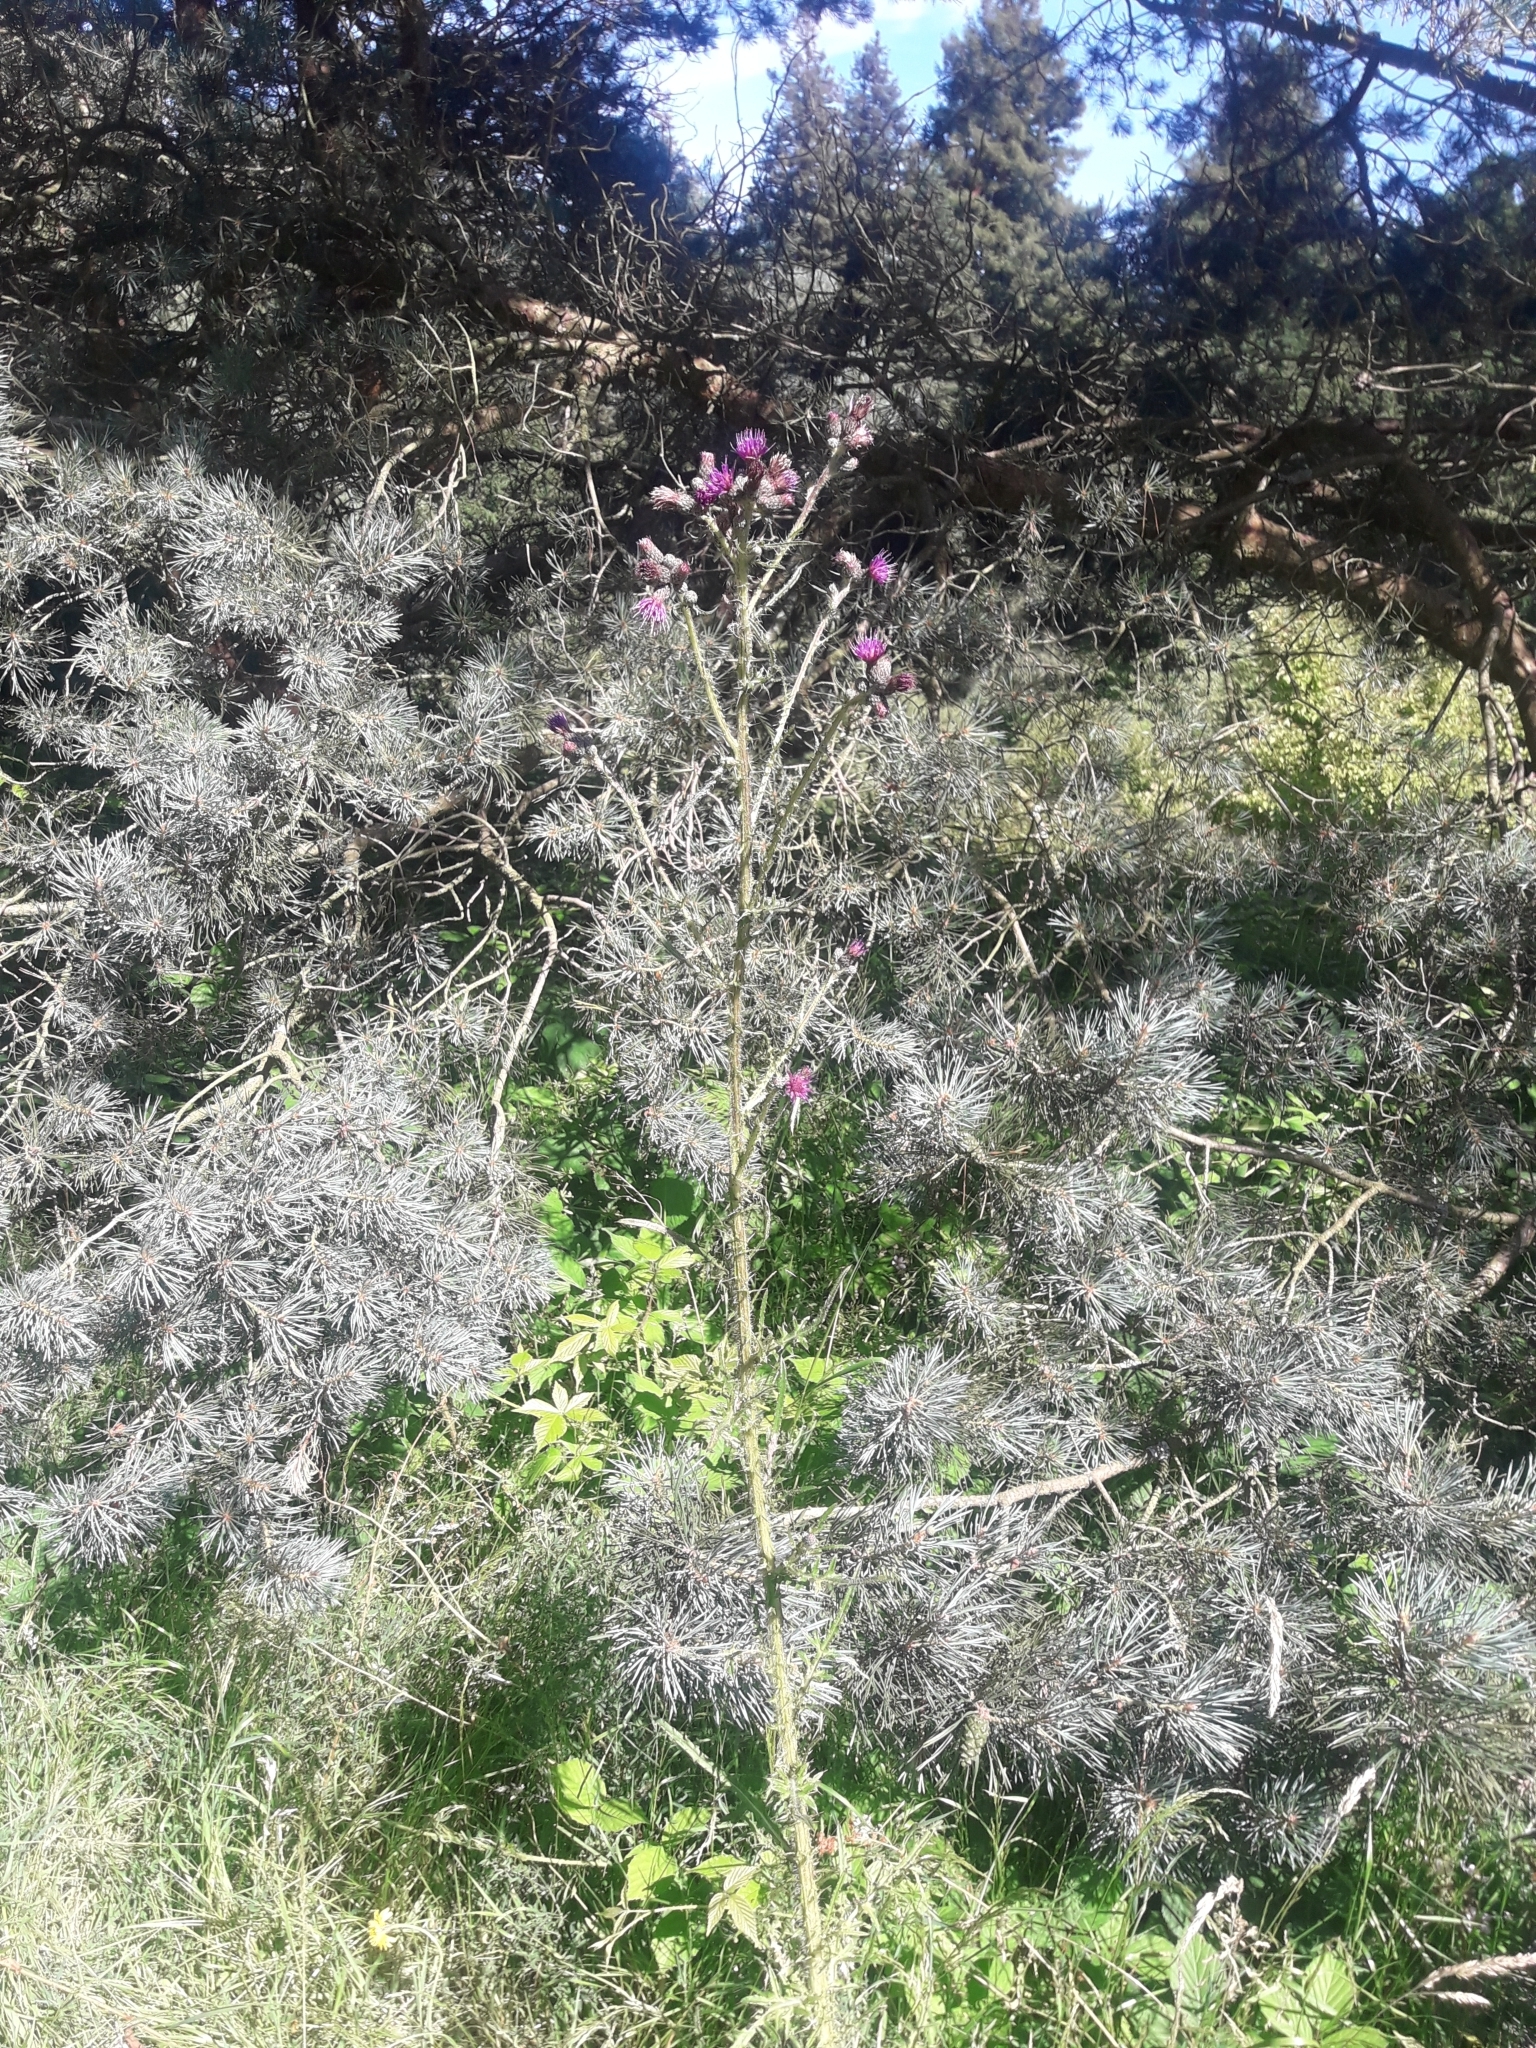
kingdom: Plantae
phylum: Tracheophyta
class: Magnoliopsida
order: Asterales
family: Asteraceae
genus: Cirsium
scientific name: Cirsium palustre
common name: Marsh thistle
